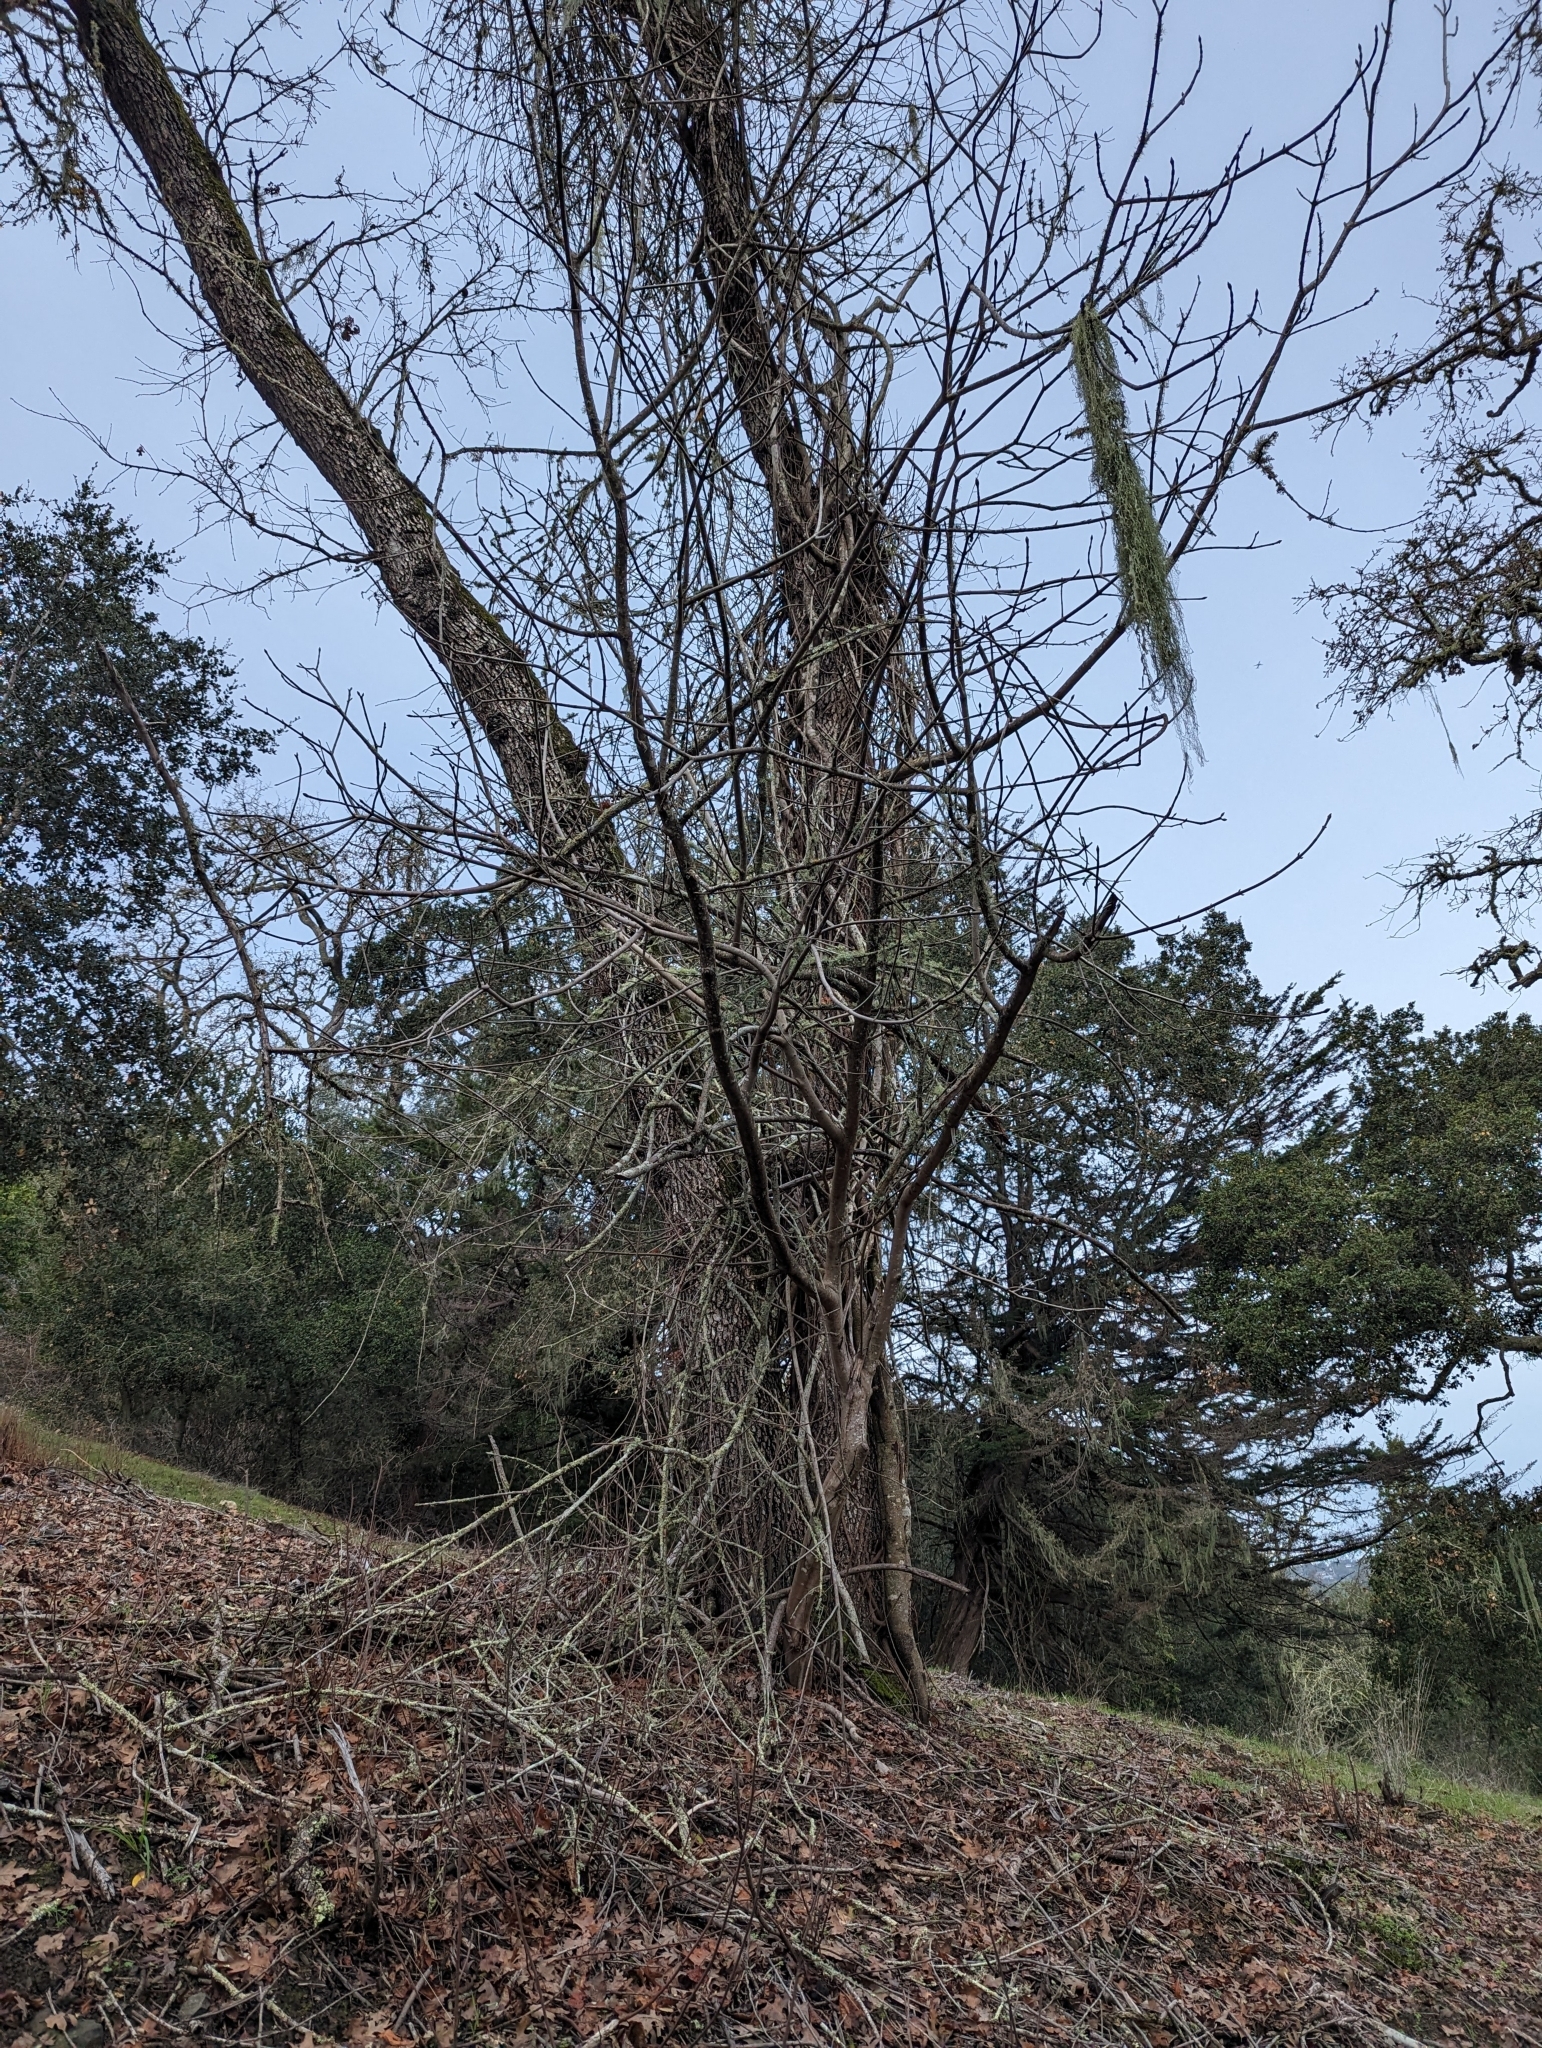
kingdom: Plantae
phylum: Tracheophyta
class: Magnoliopsida
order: Fagales
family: Fagaceae
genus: Quercus
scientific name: Quercus lobata
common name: Valley oak
